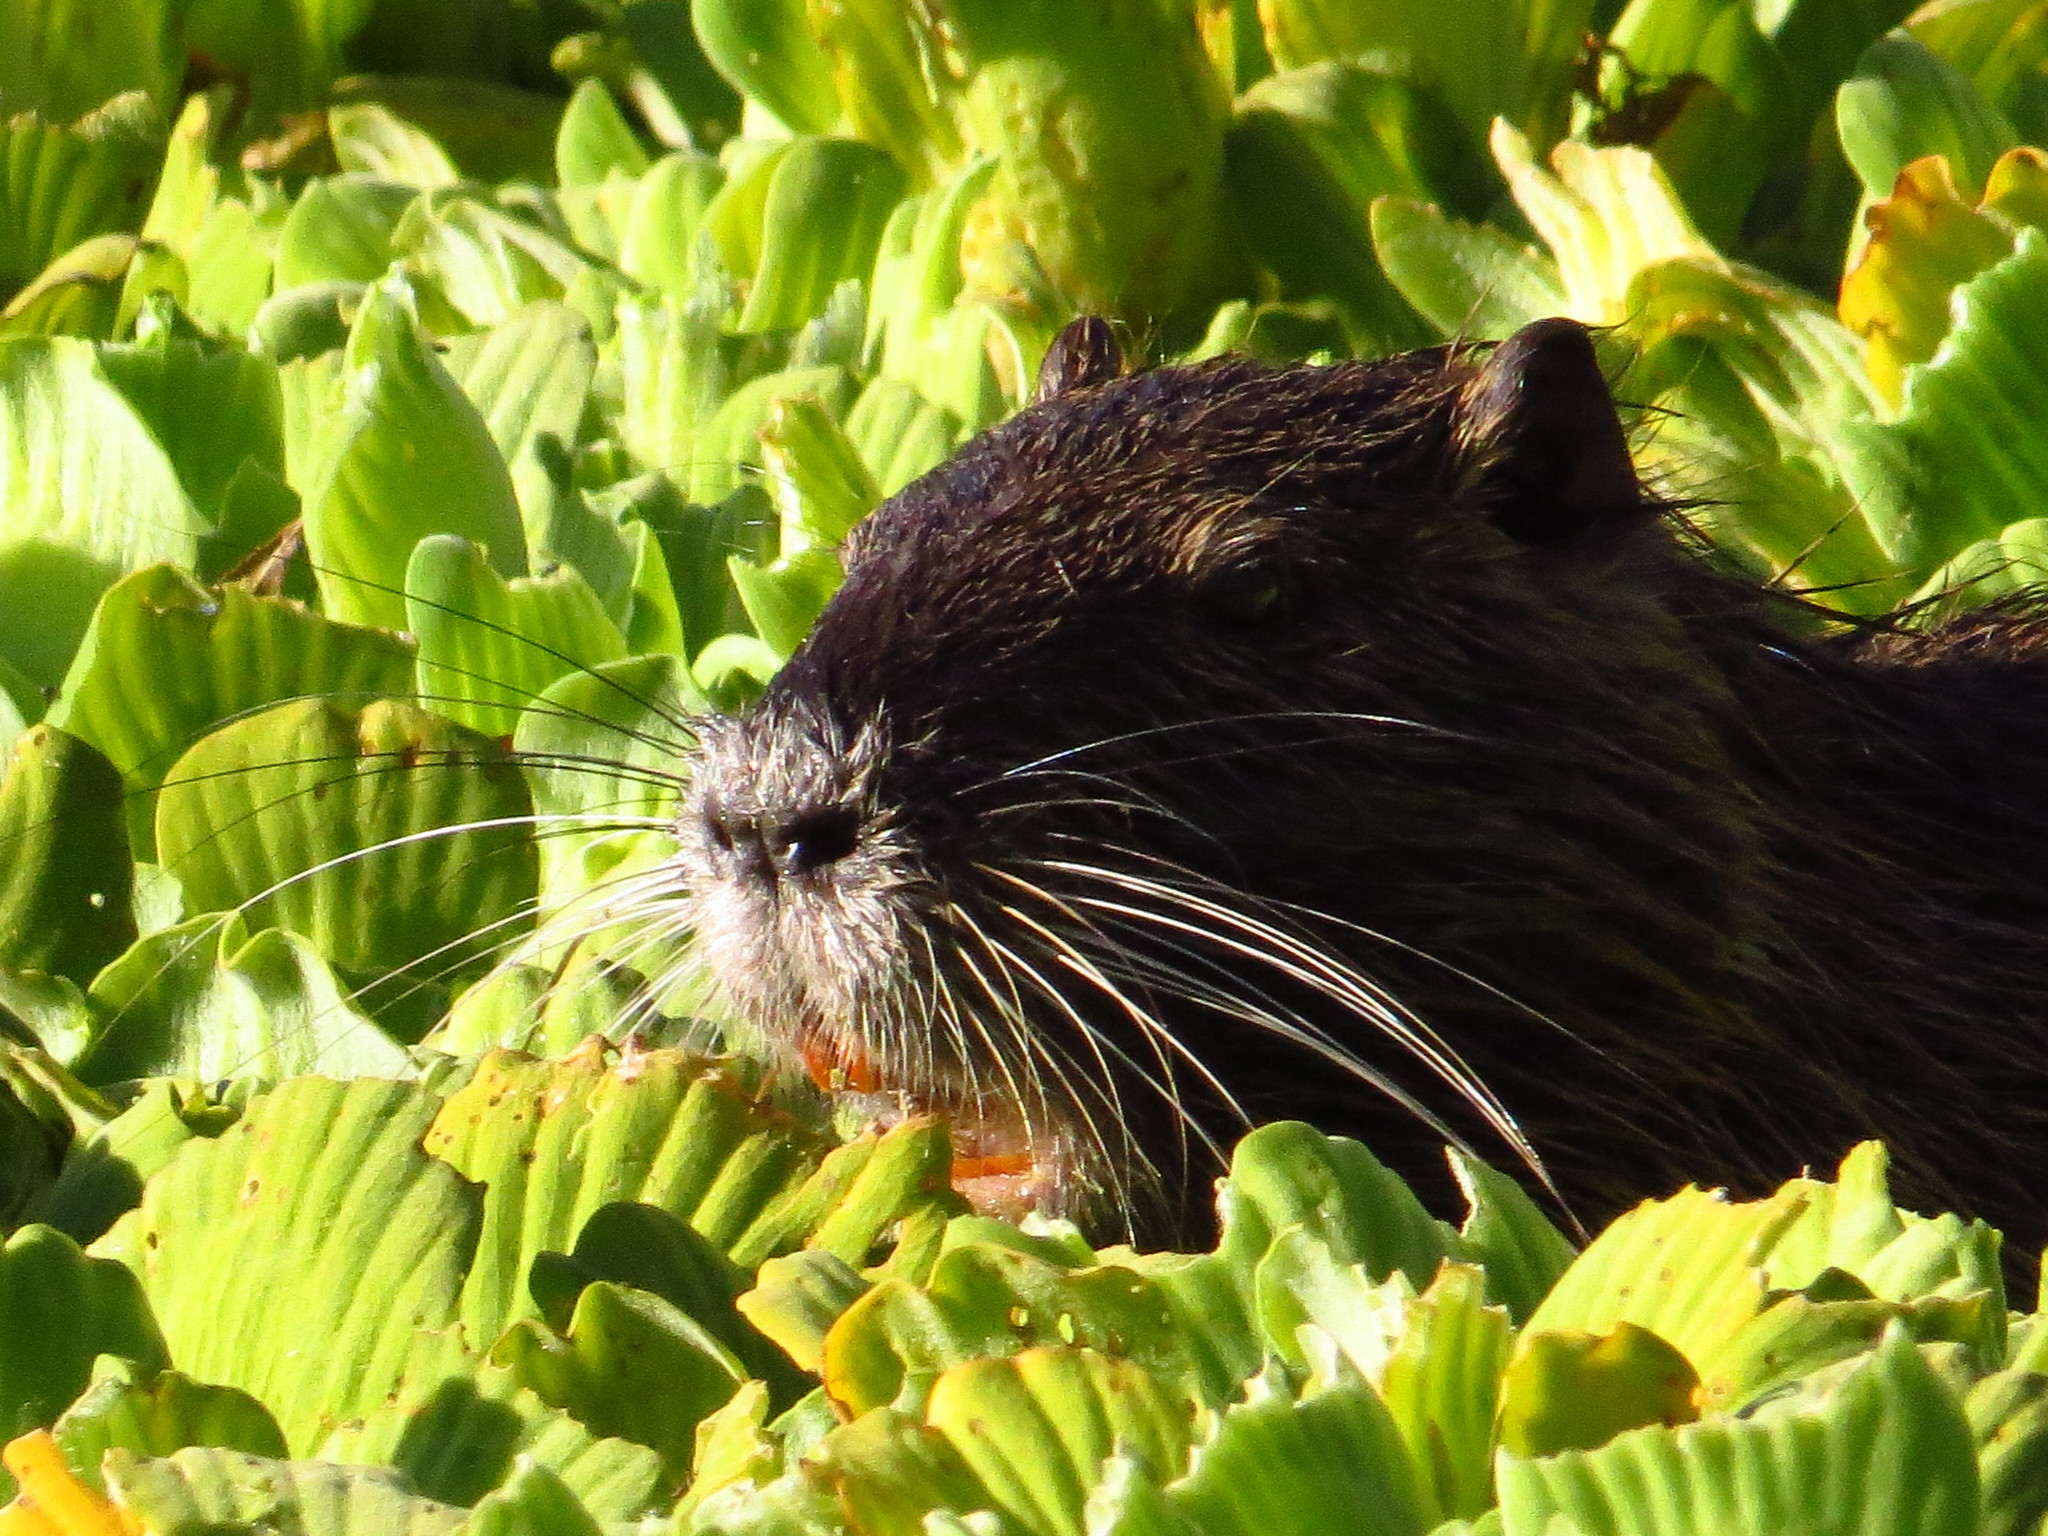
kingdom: Animalia
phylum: Chordata
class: Mammalia
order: Rodentia
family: Myocastoridae
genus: Myocastor
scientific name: Myocastor coypus
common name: Coypu
